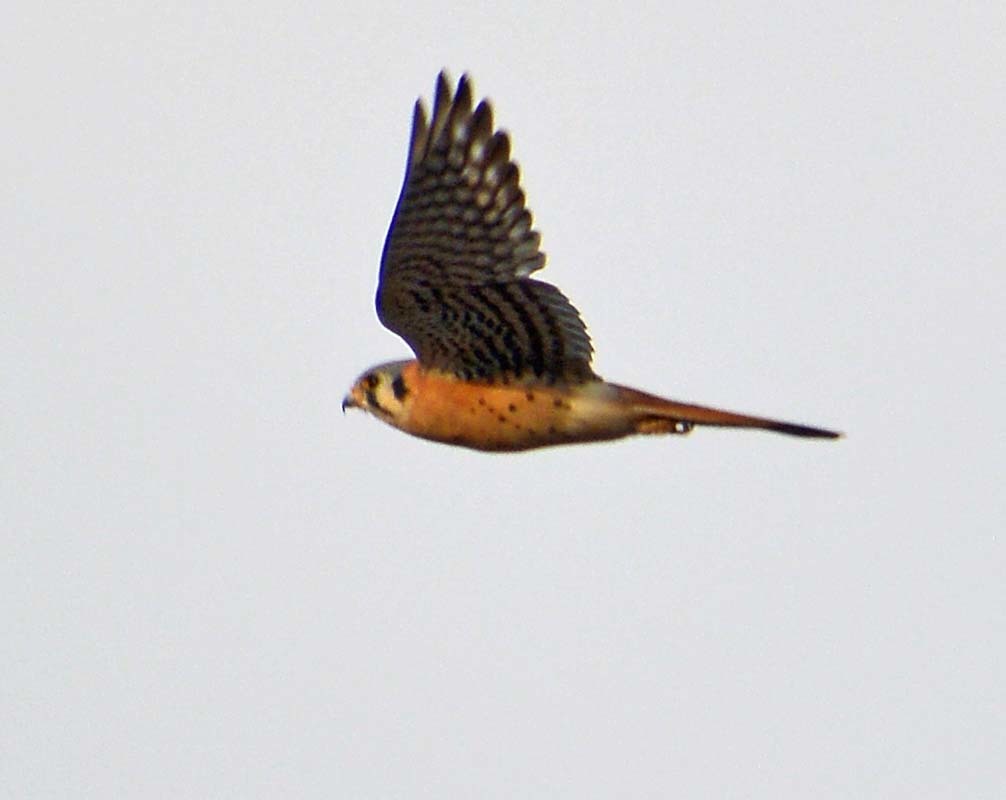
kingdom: Animalia
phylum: Chordata
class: Aves
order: Falconiformes
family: Falconidae
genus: Falco
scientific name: Falco sparverius
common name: American kestrel
